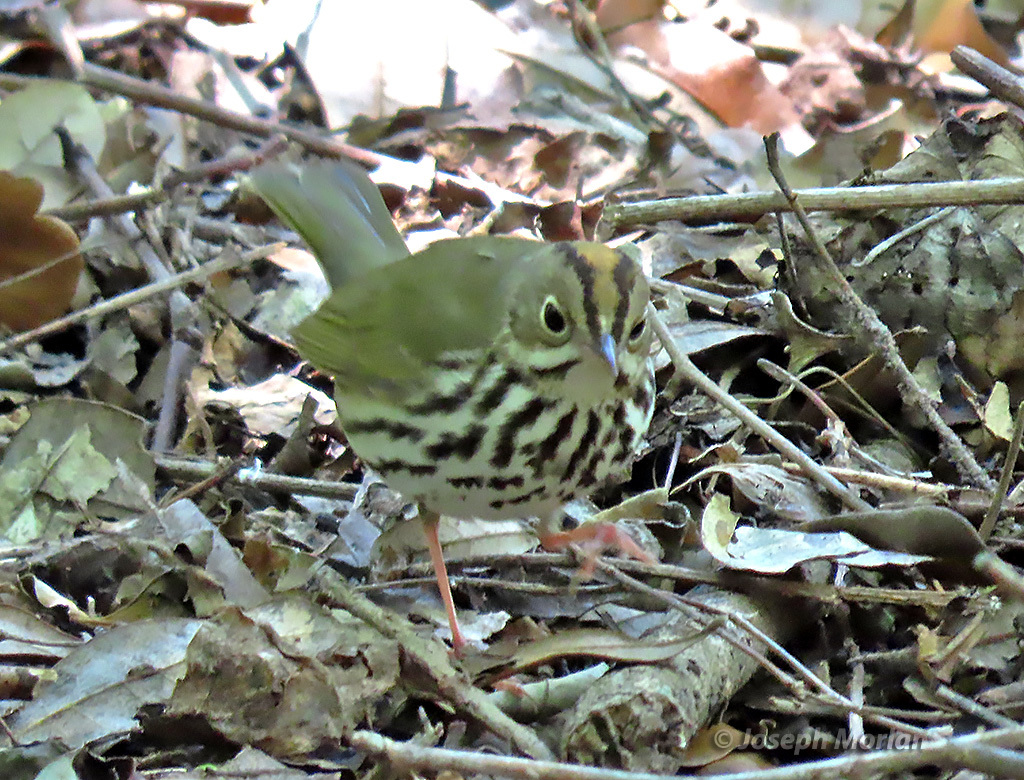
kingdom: Animalia
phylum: Chordata
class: Aves
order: Passeriformes
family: Parulidae
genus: Seiurus
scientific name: Seiurus aurocapilla
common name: Ovenbird
